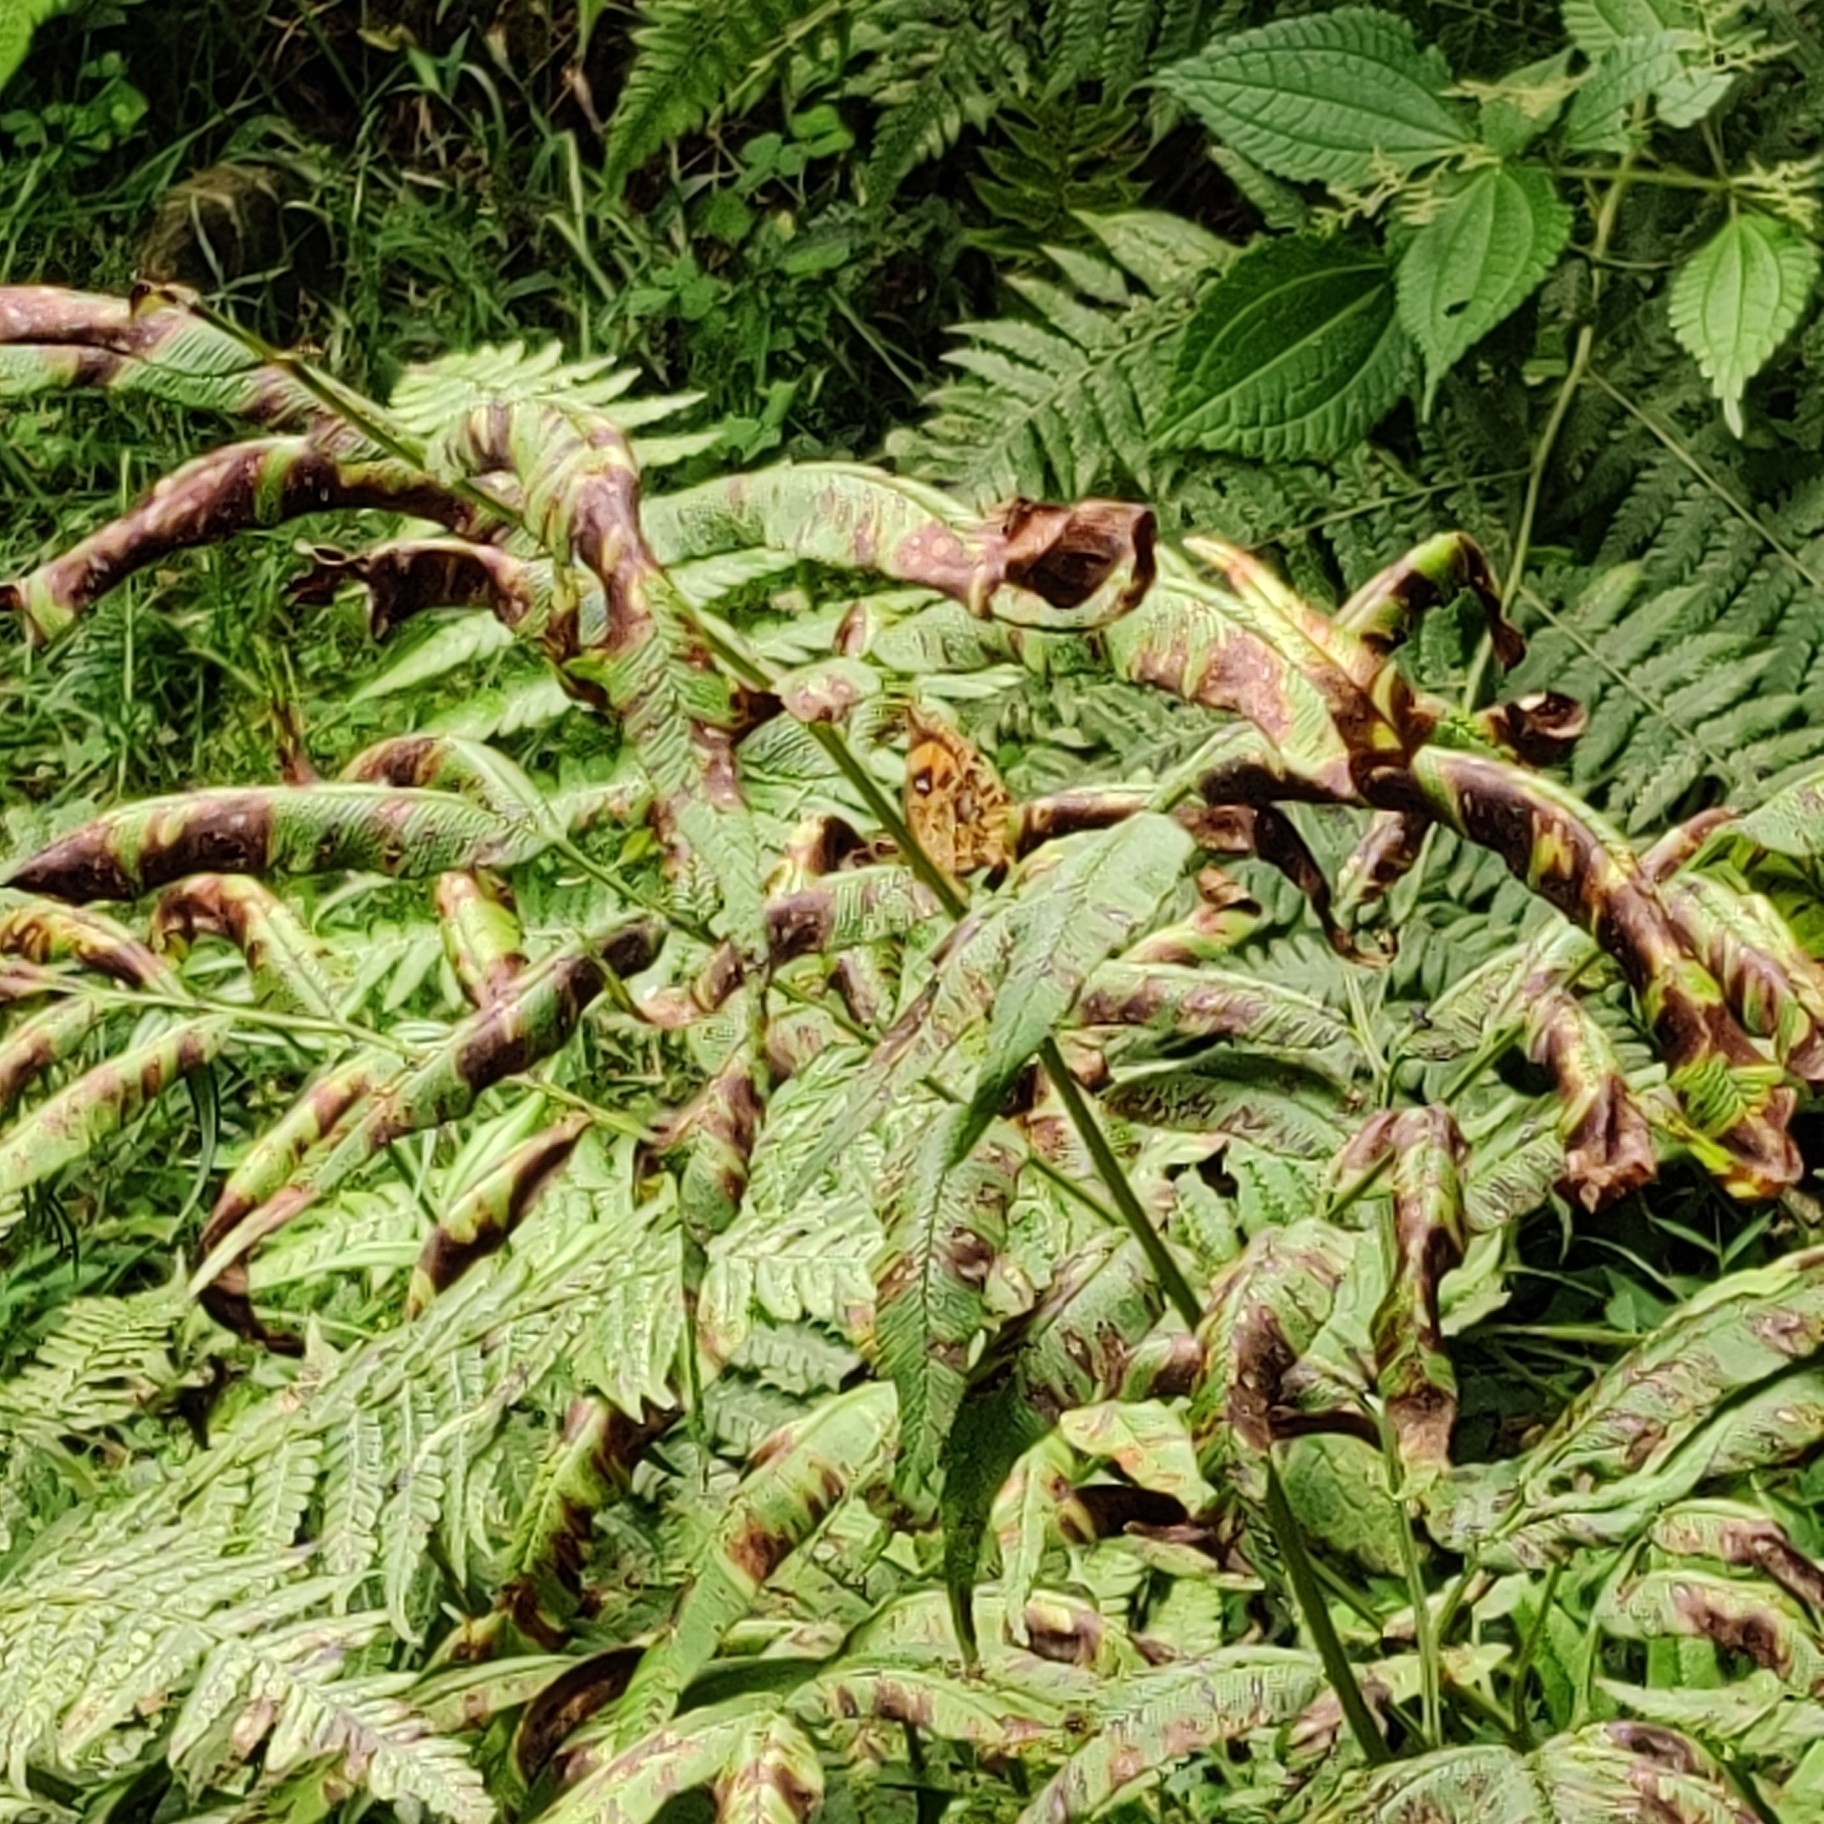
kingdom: Animalia
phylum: Arthropoda
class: Insecta
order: Lepidoptera
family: Callidulidae
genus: Pterodecta
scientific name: Pterodecta anchora
